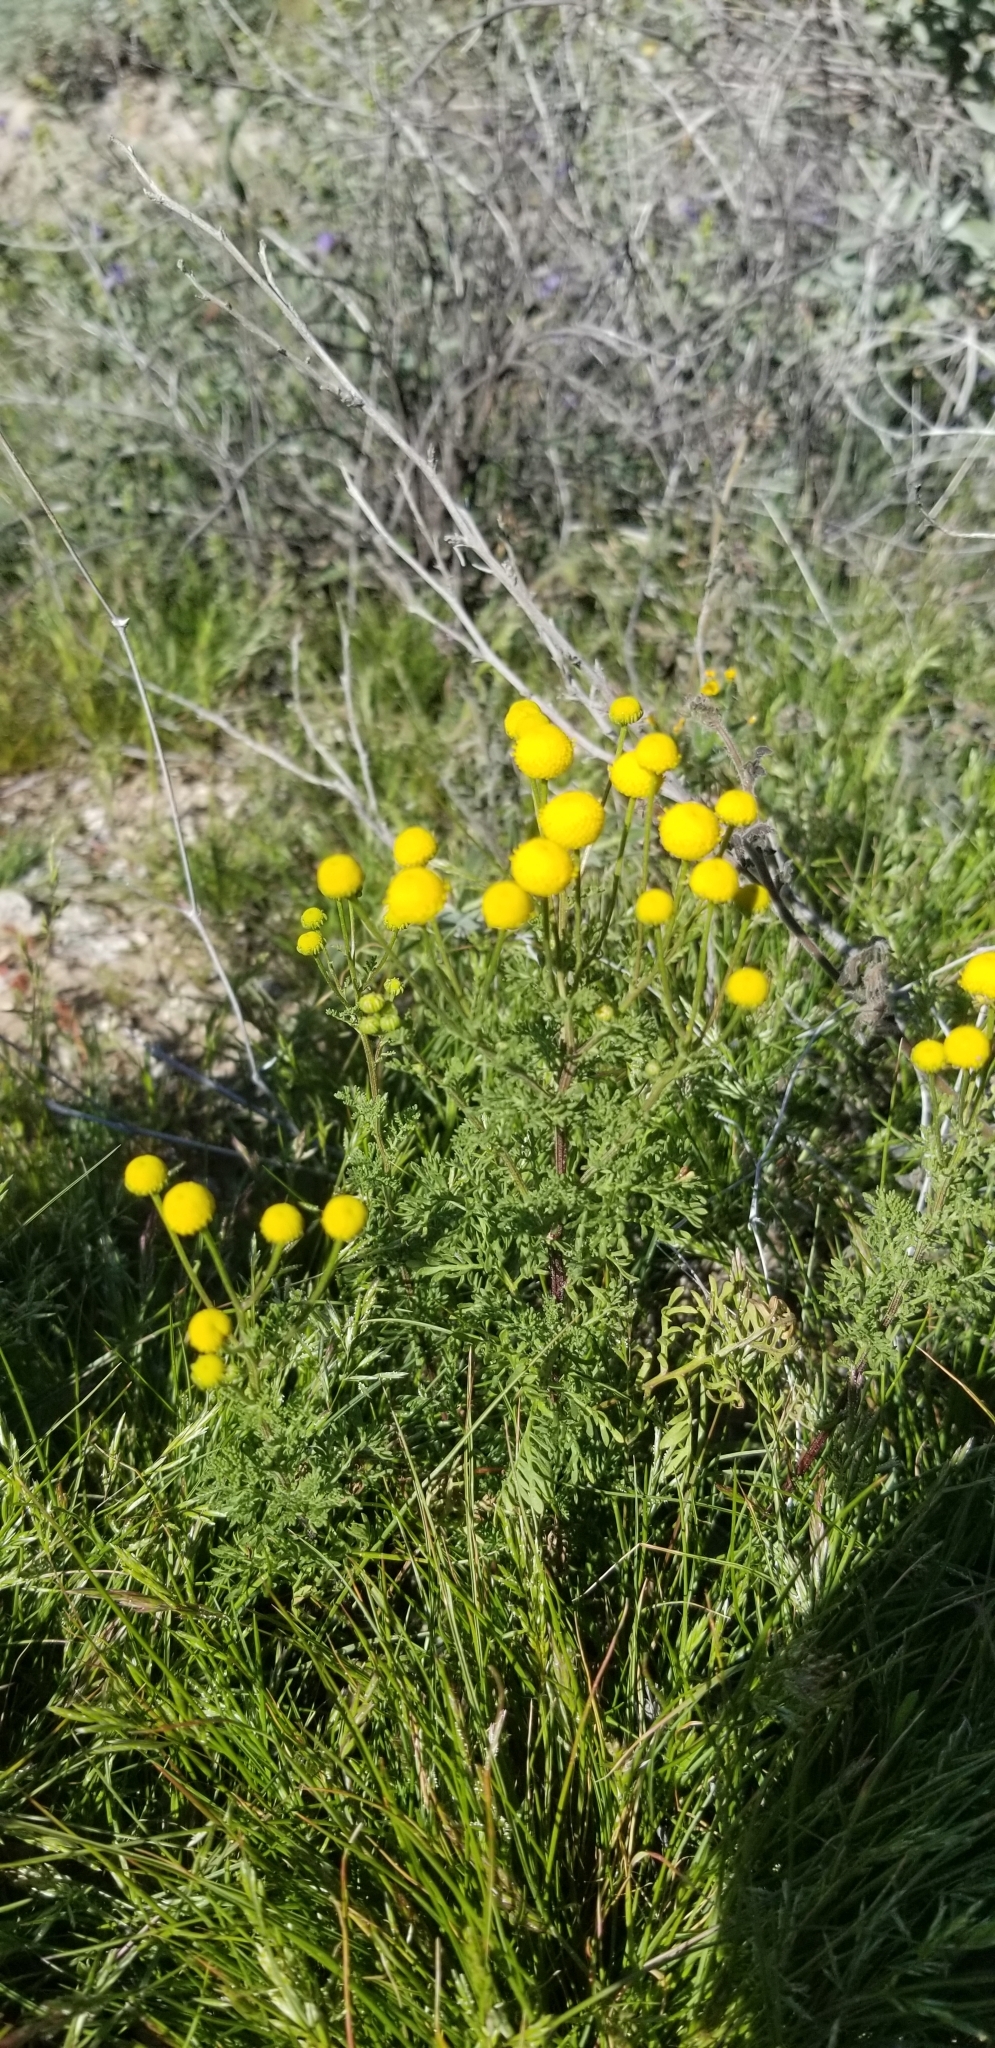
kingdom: Plantae
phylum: Tracheophyta
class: Magnoliopsida
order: Asterales
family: Asteraceae
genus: Oncosiphon
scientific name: Oncosiphon pilulifer
